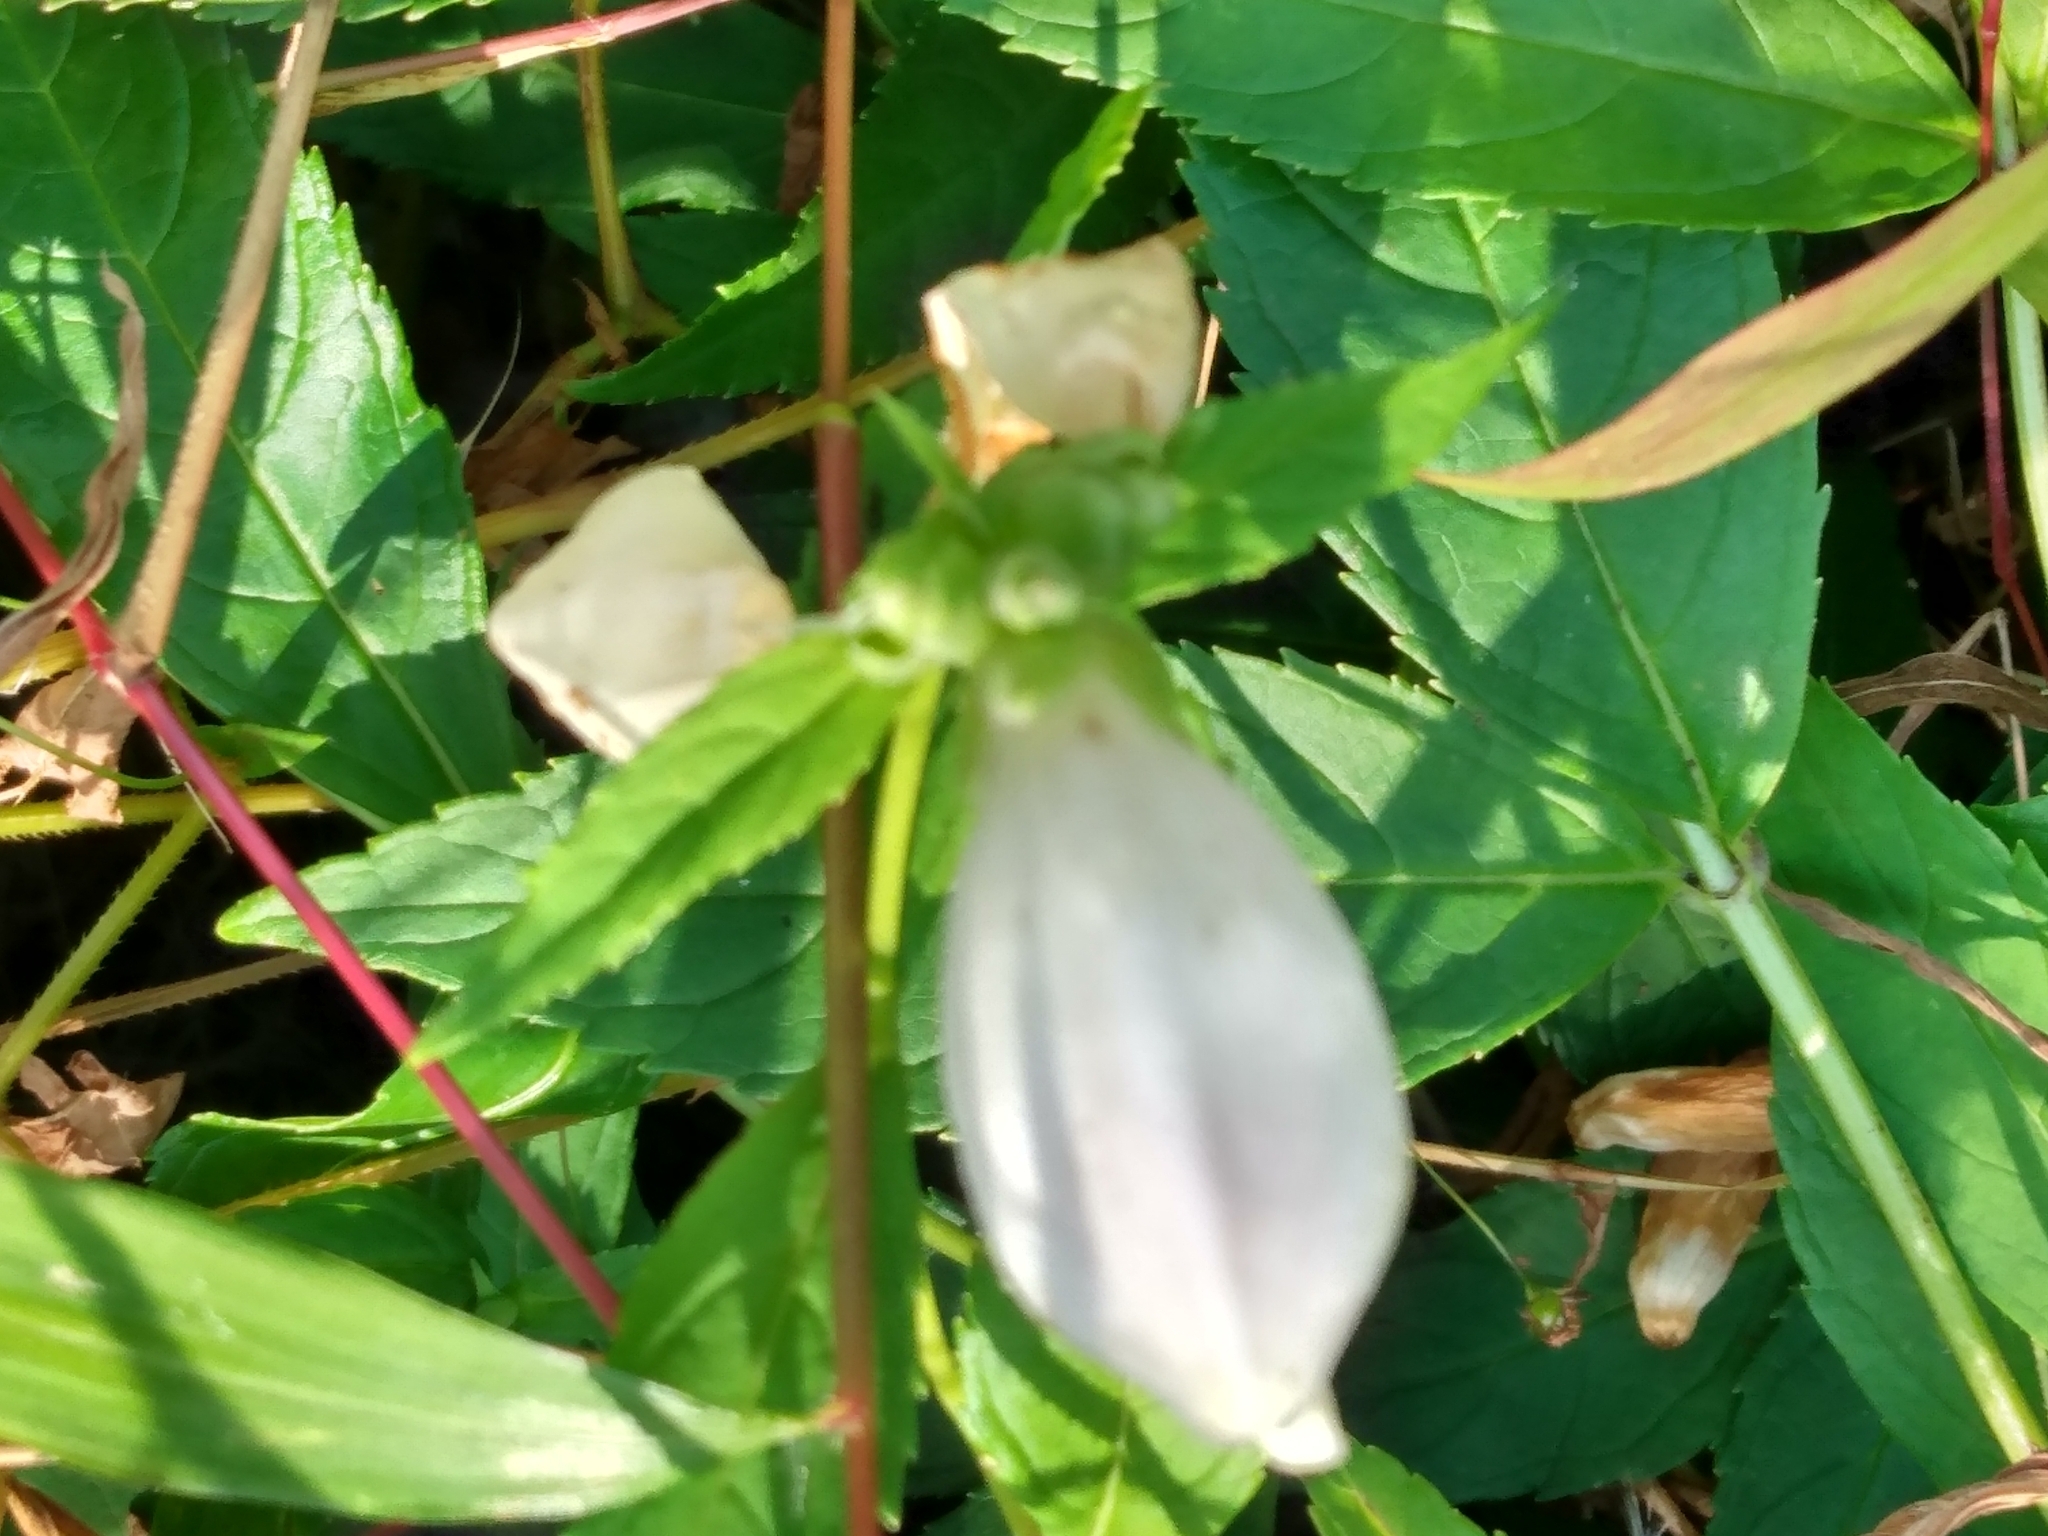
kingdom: Plantae
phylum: Tracheophyta
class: Magnoliopsida
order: Lamiales
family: Plantaginaceae
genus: Chelone
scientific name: Chelone glabra
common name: Snakehead
